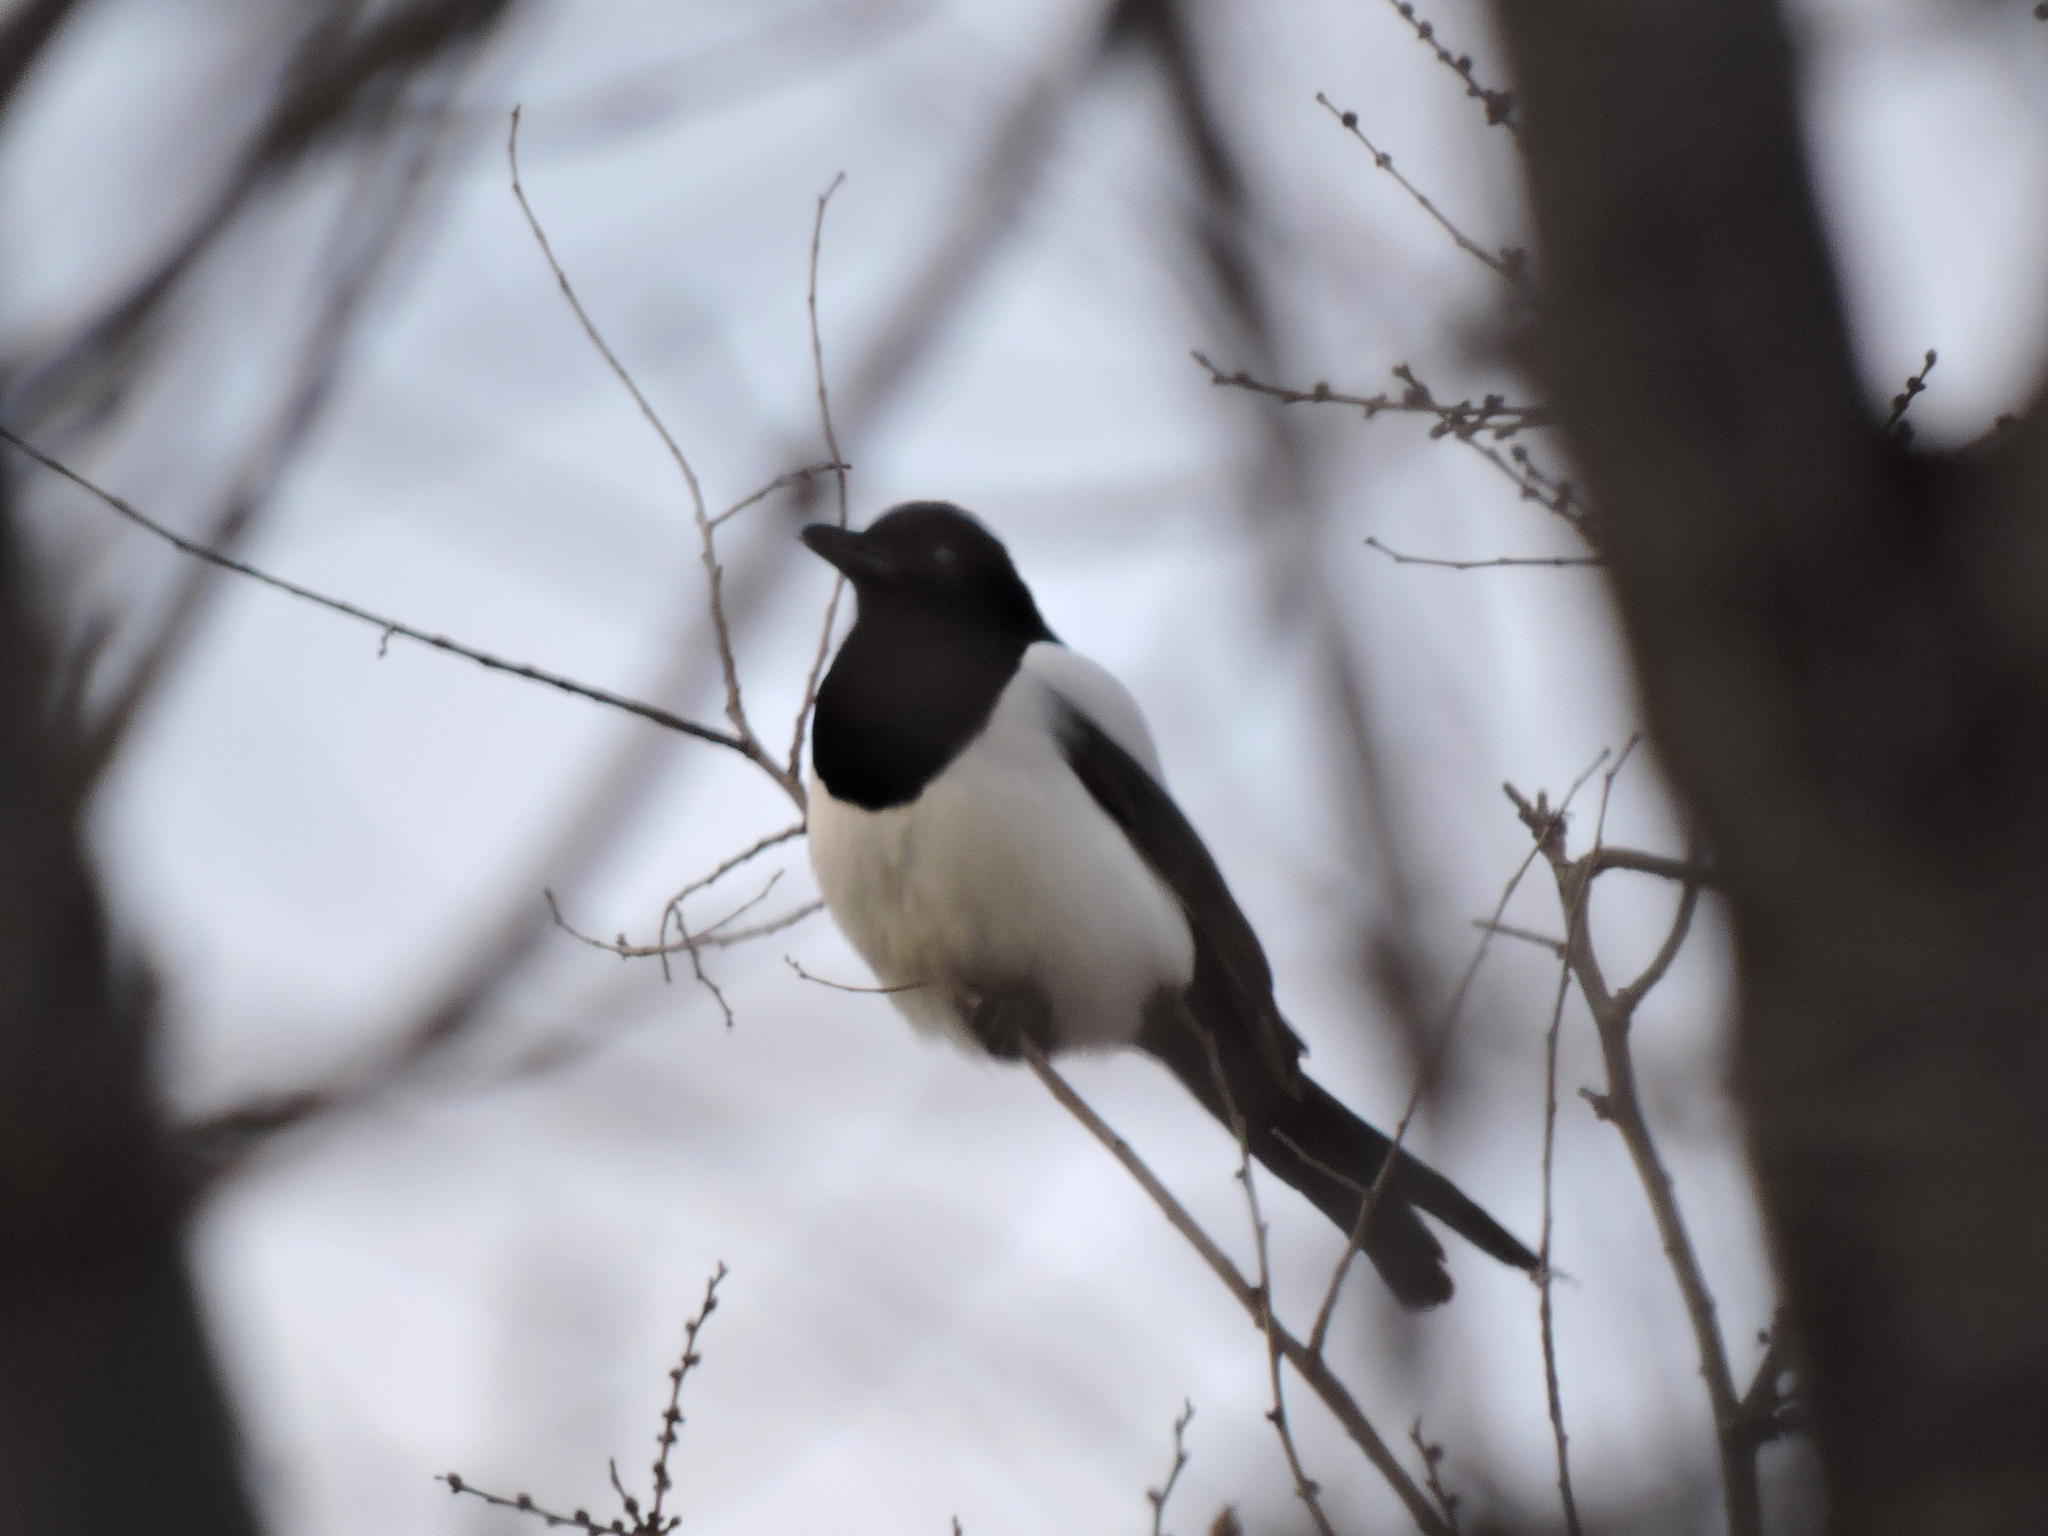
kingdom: Animalia
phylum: Chordata
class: Aves
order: Passeriformes
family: Corvidae
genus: Pica
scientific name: Pica pica
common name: Eurasian magpie
